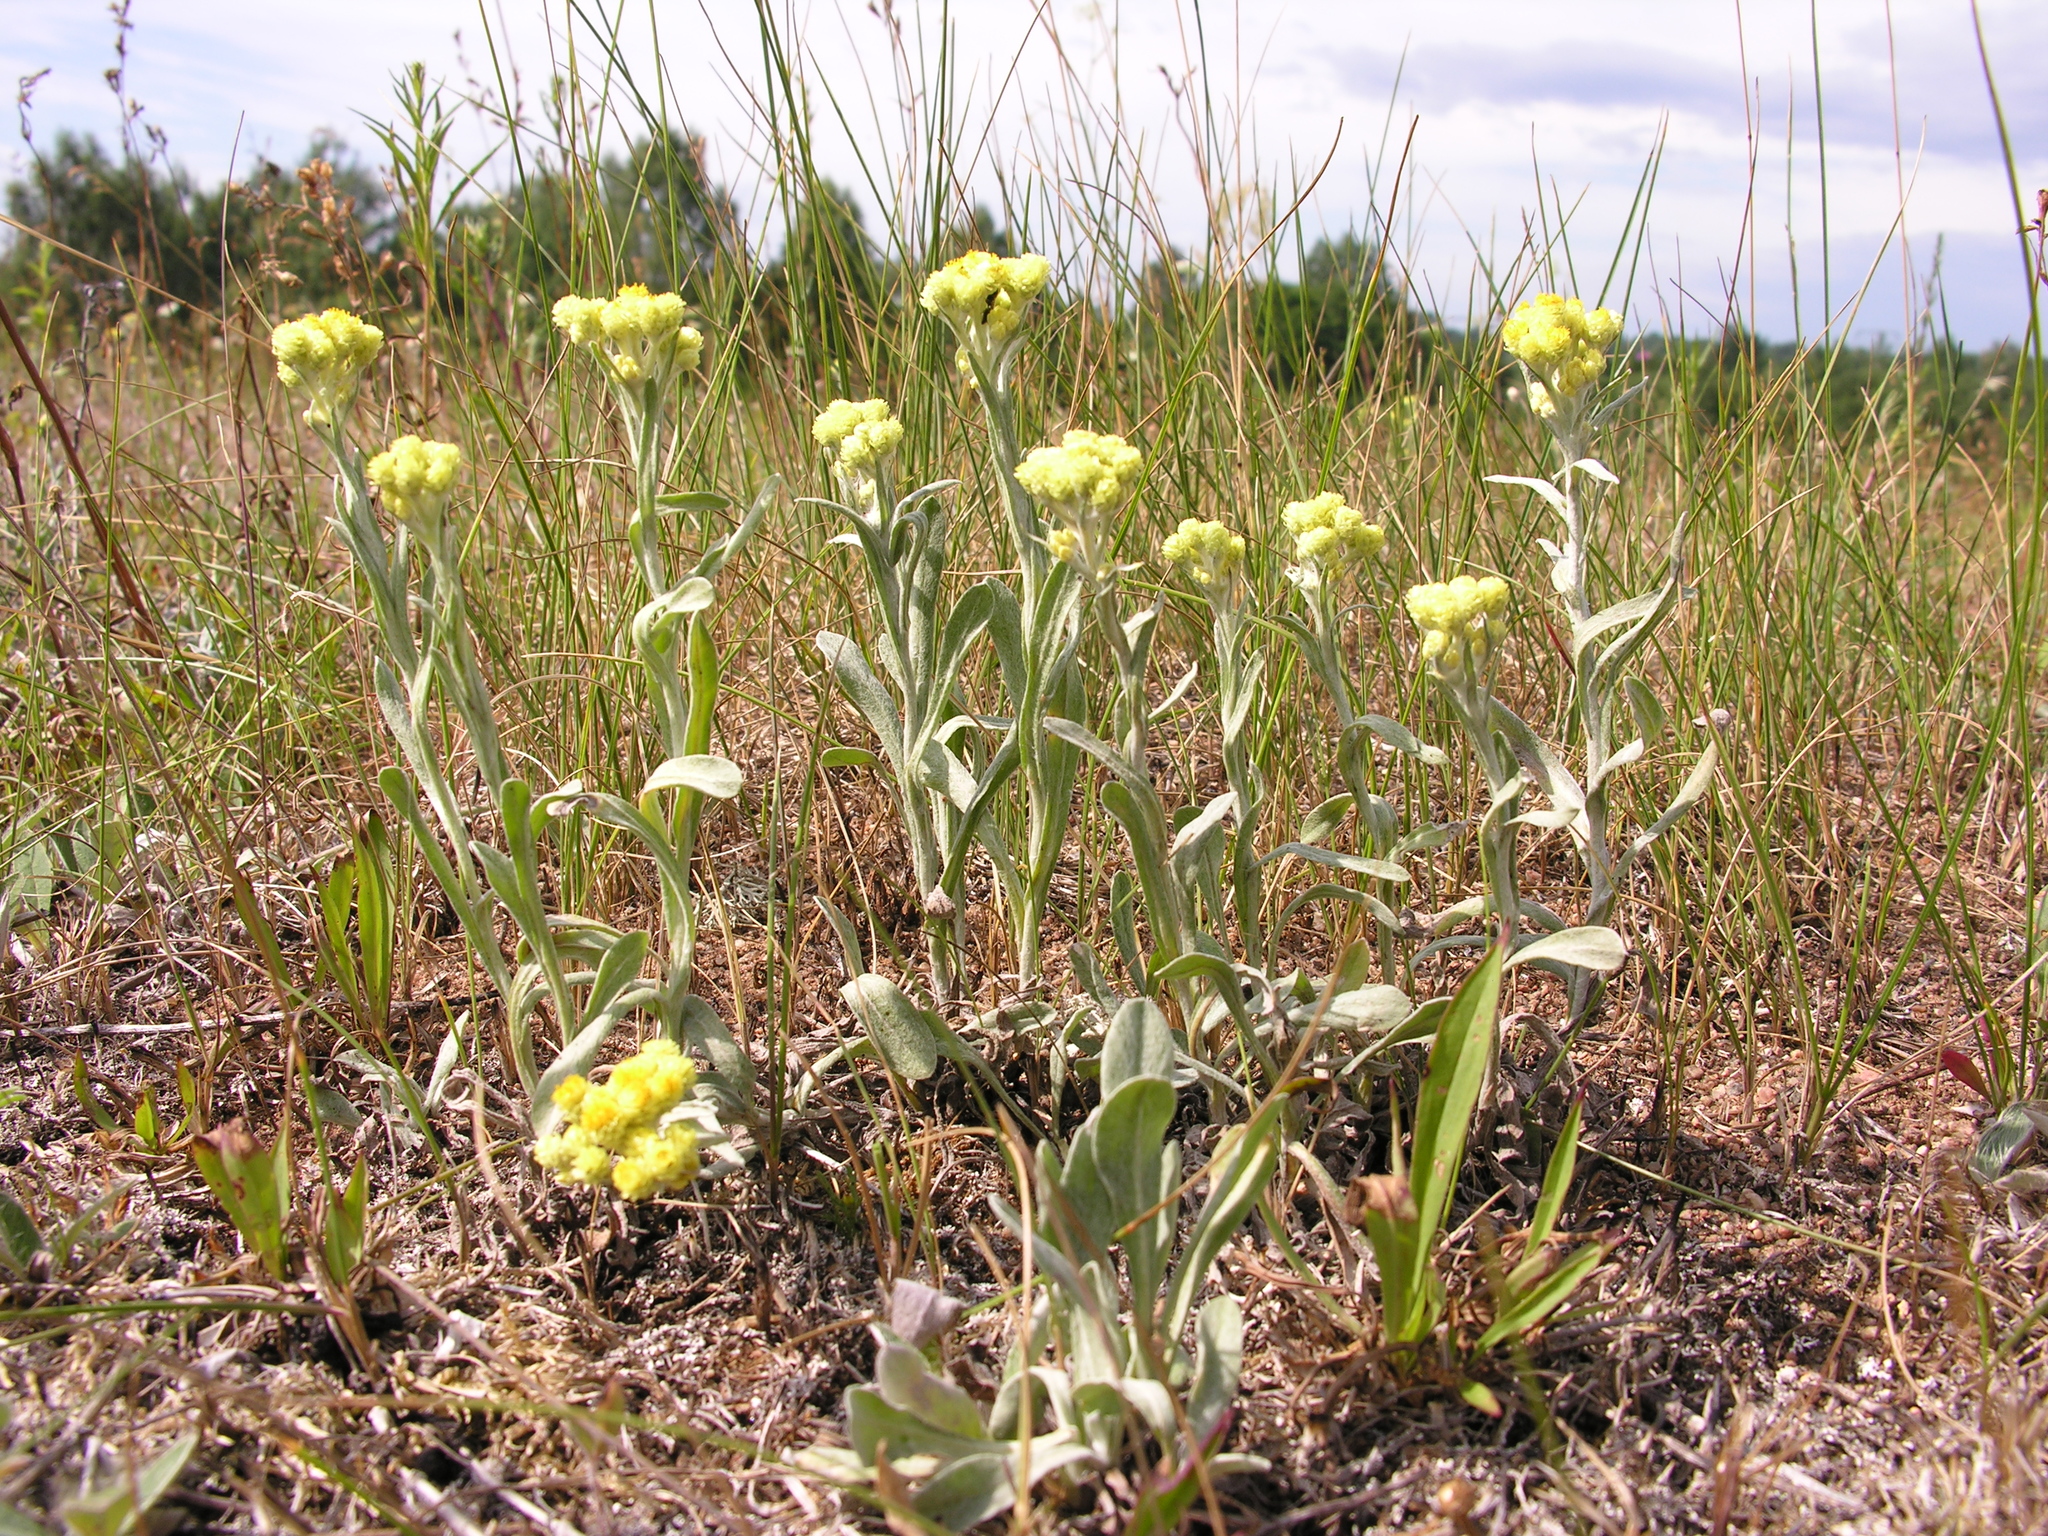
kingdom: Plantae
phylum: Tracheophyta
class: Magnoliopsida
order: Asterales
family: Asteraceae
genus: Helichrysum
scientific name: Helichrysum arenarium
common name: Strawflower
